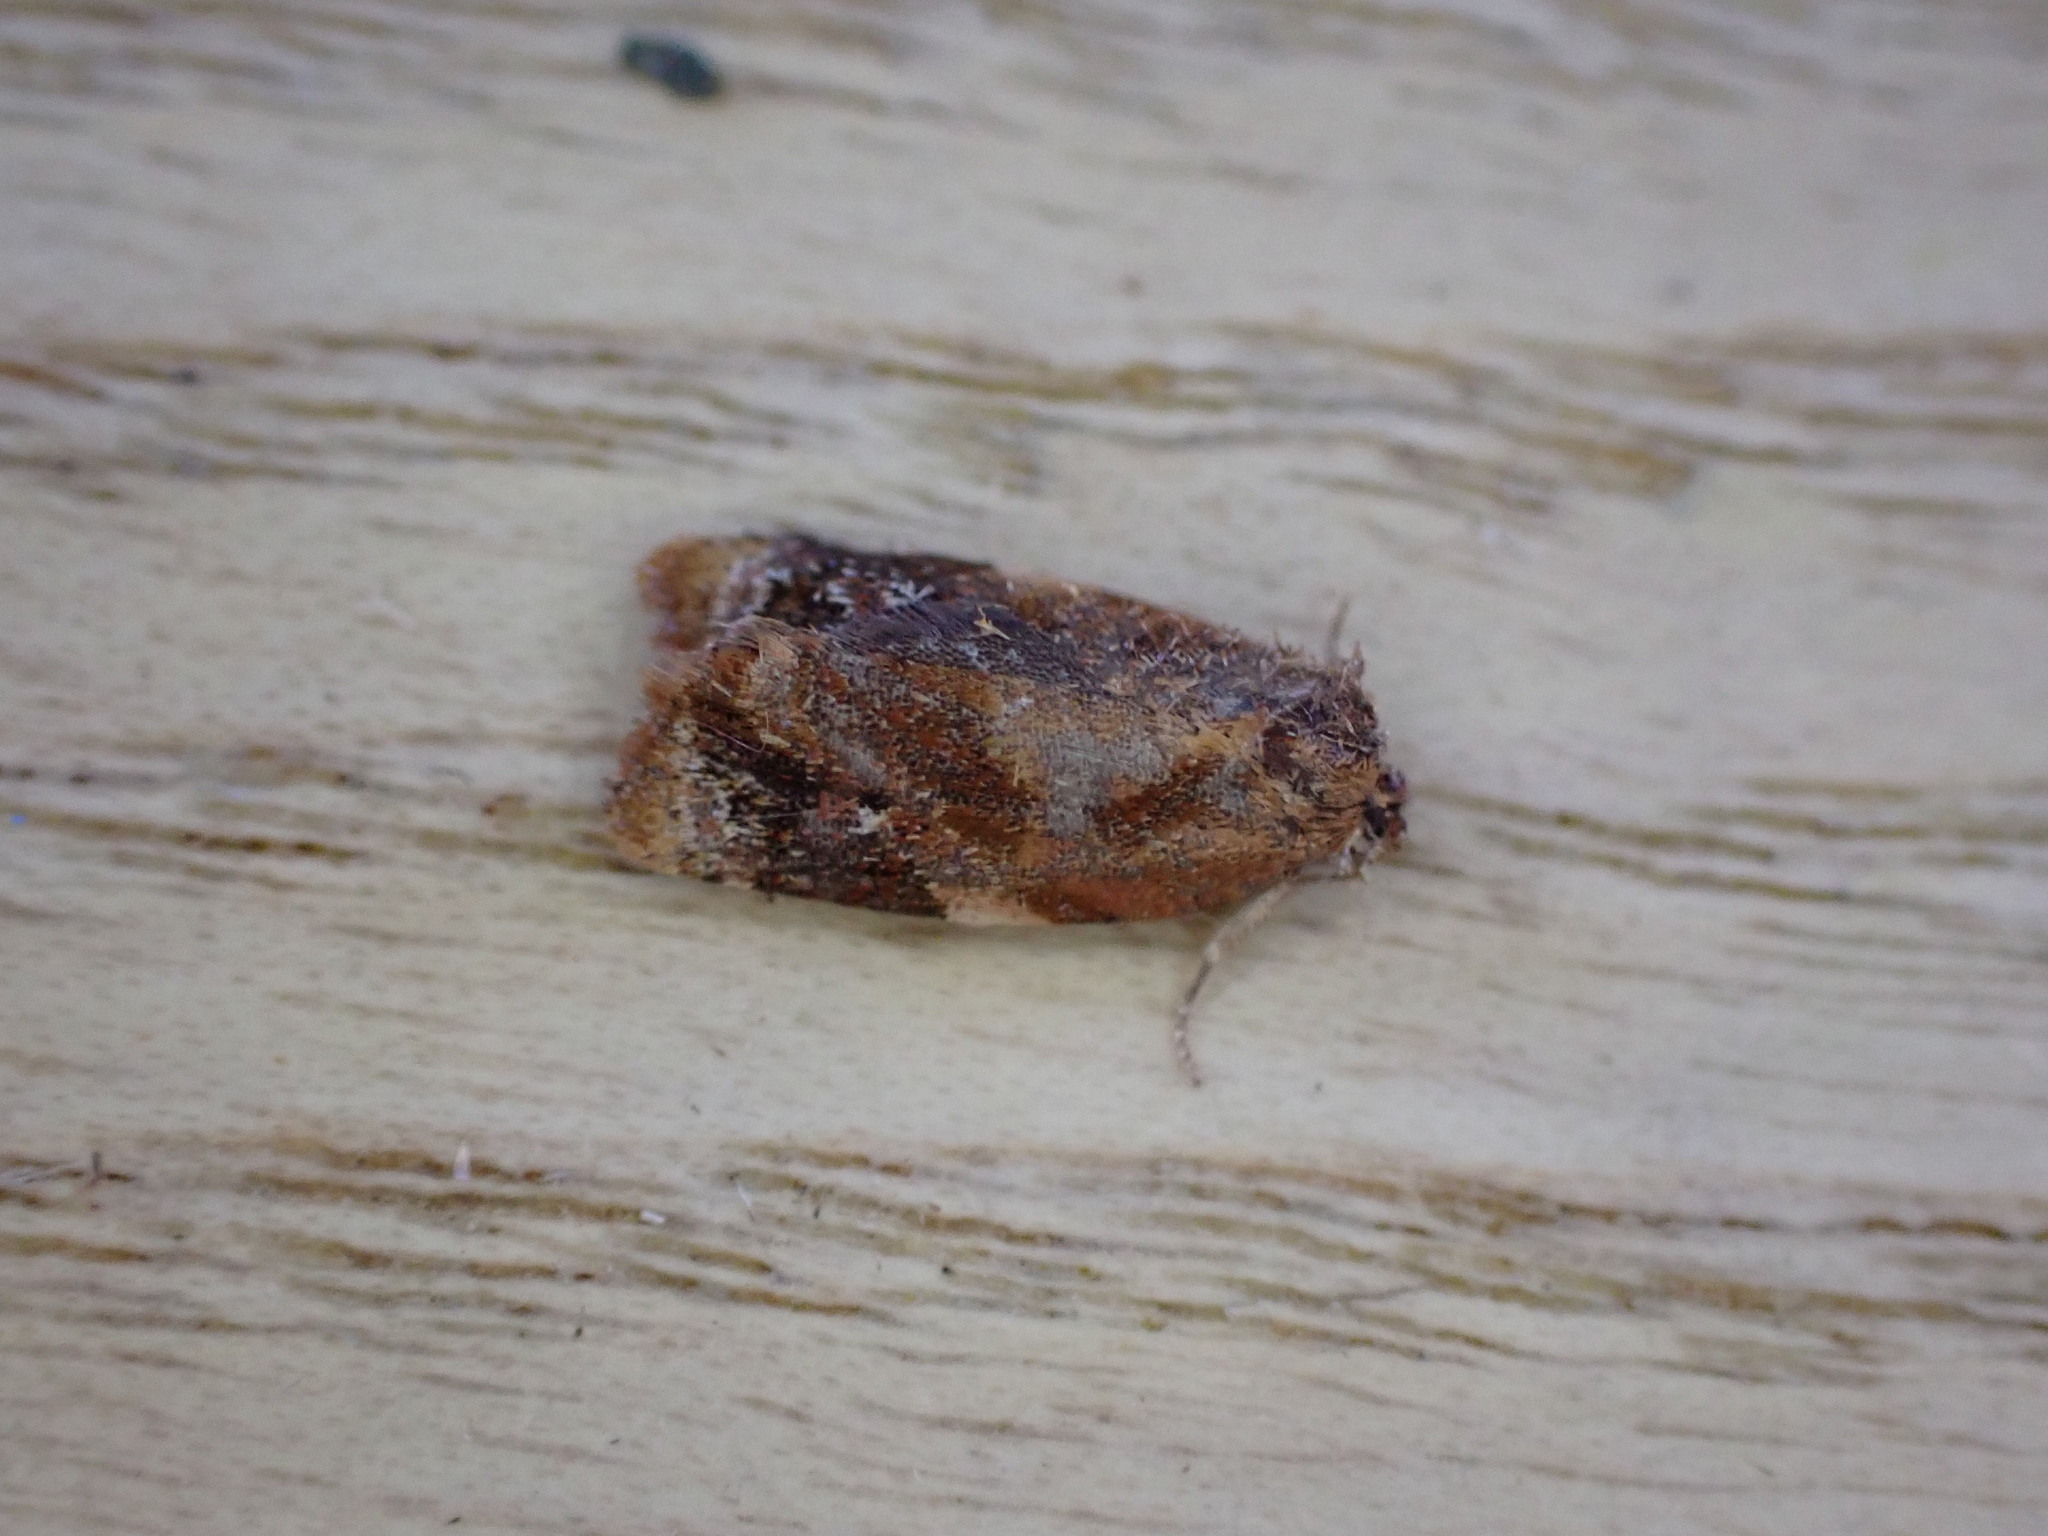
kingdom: Animalia
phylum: Arthropoda
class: Insecta
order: Lepidoptera
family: Tortricidae
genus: Ditula
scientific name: Ditula angustiorana
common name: Red-barred tortrix
